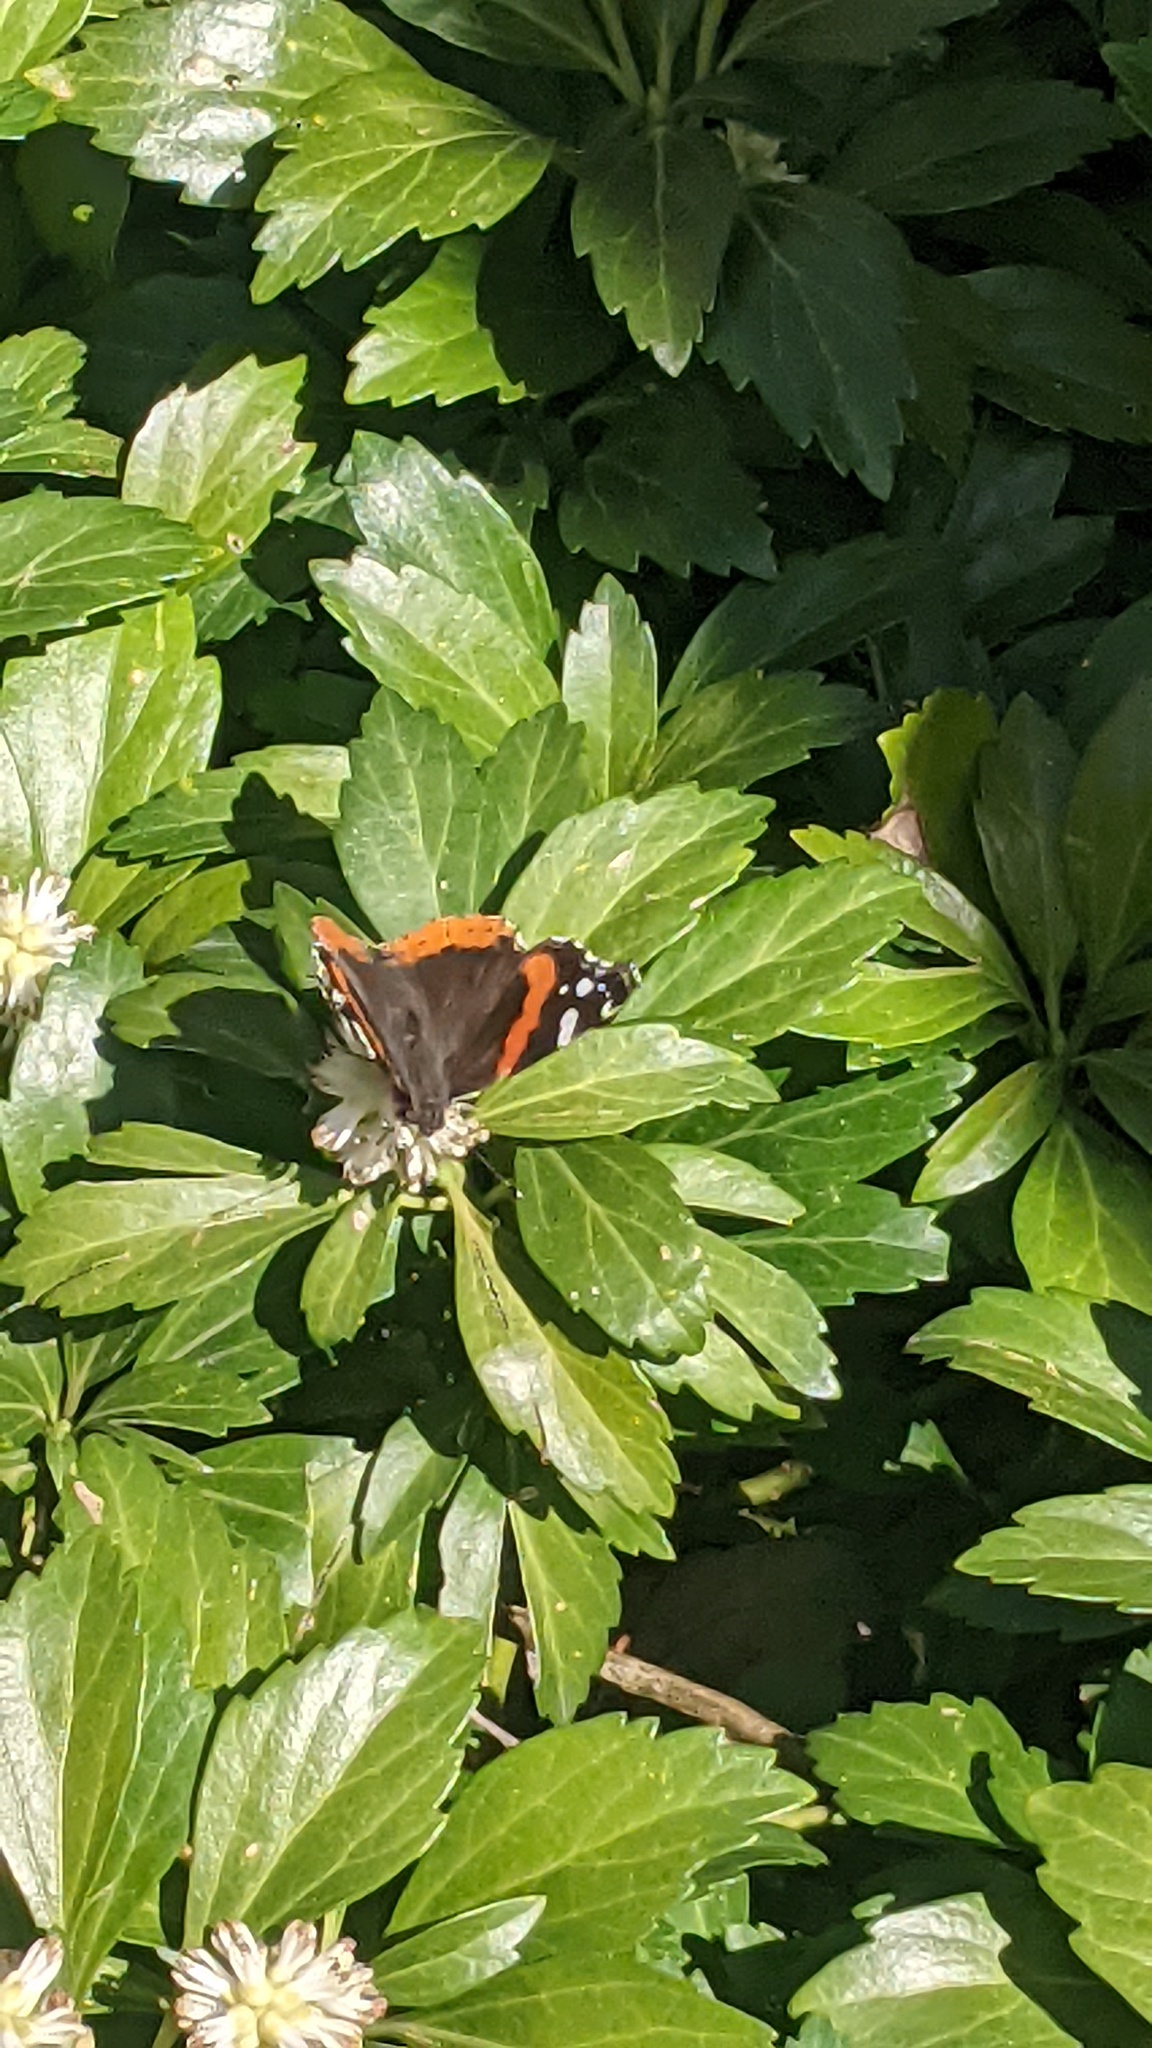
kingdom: Animalia
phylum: Arthropoda
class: Insecta
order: Lepidoptera
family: Nymphalidae
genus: Vanessa
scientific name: Vanessa atalanta
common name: Red admiral
